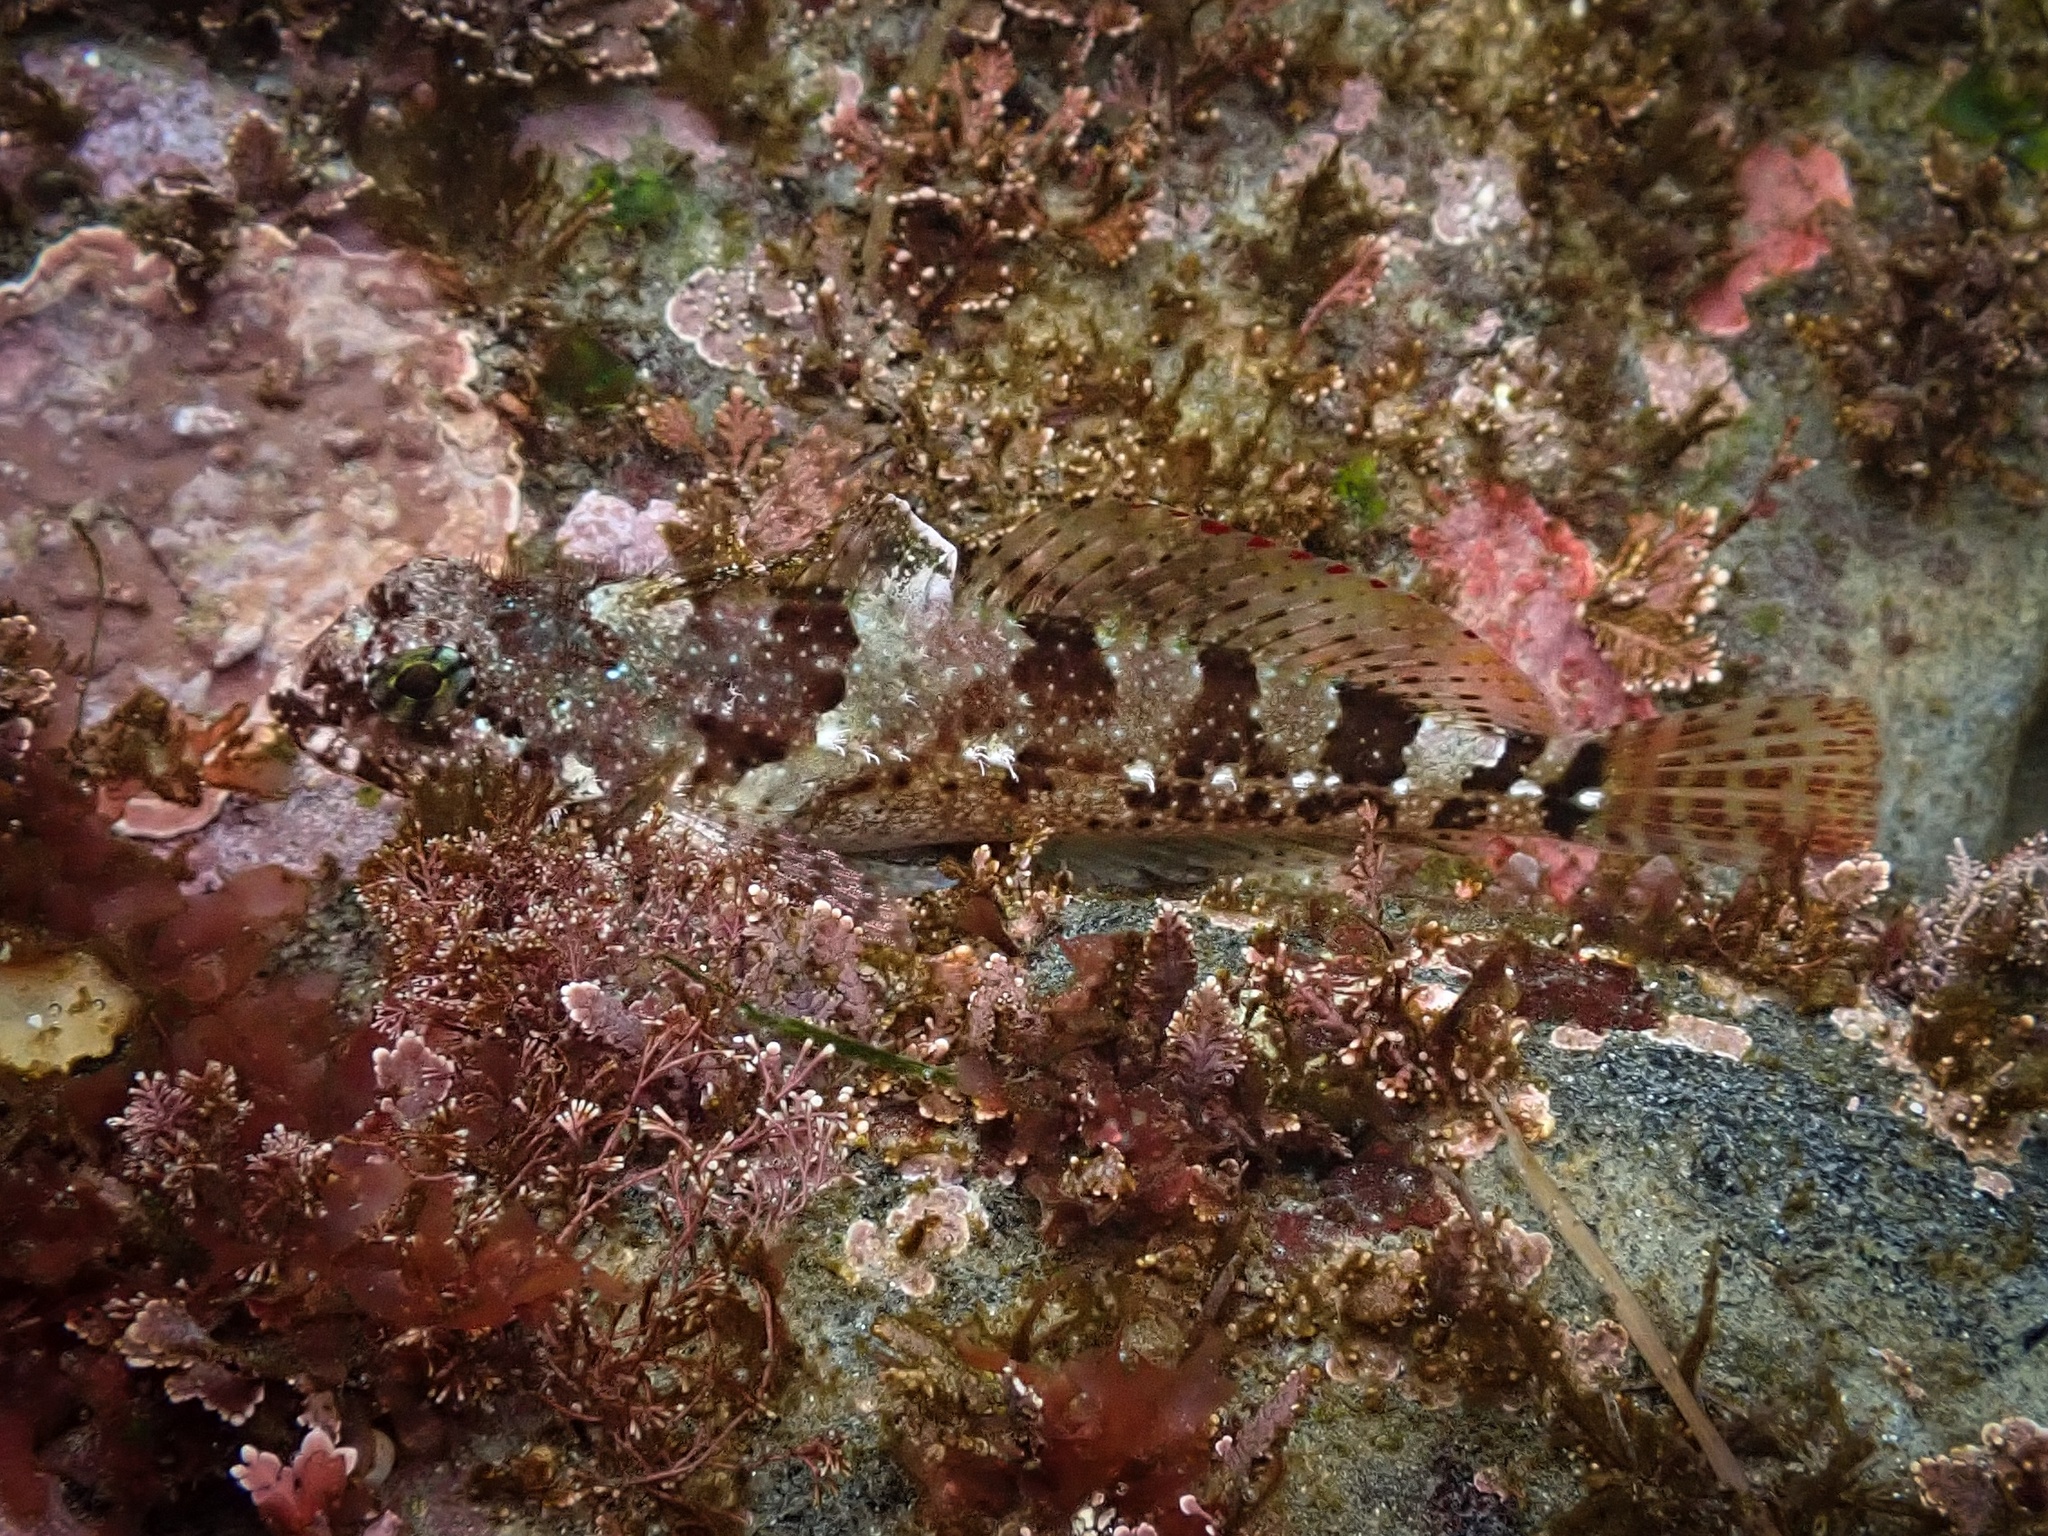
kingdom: Animalia
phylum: Chordata
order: Scorpaeniformes
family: Cottidae
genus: Clinocottus
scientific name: Clinocottus analis
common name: Woolly sculpin
